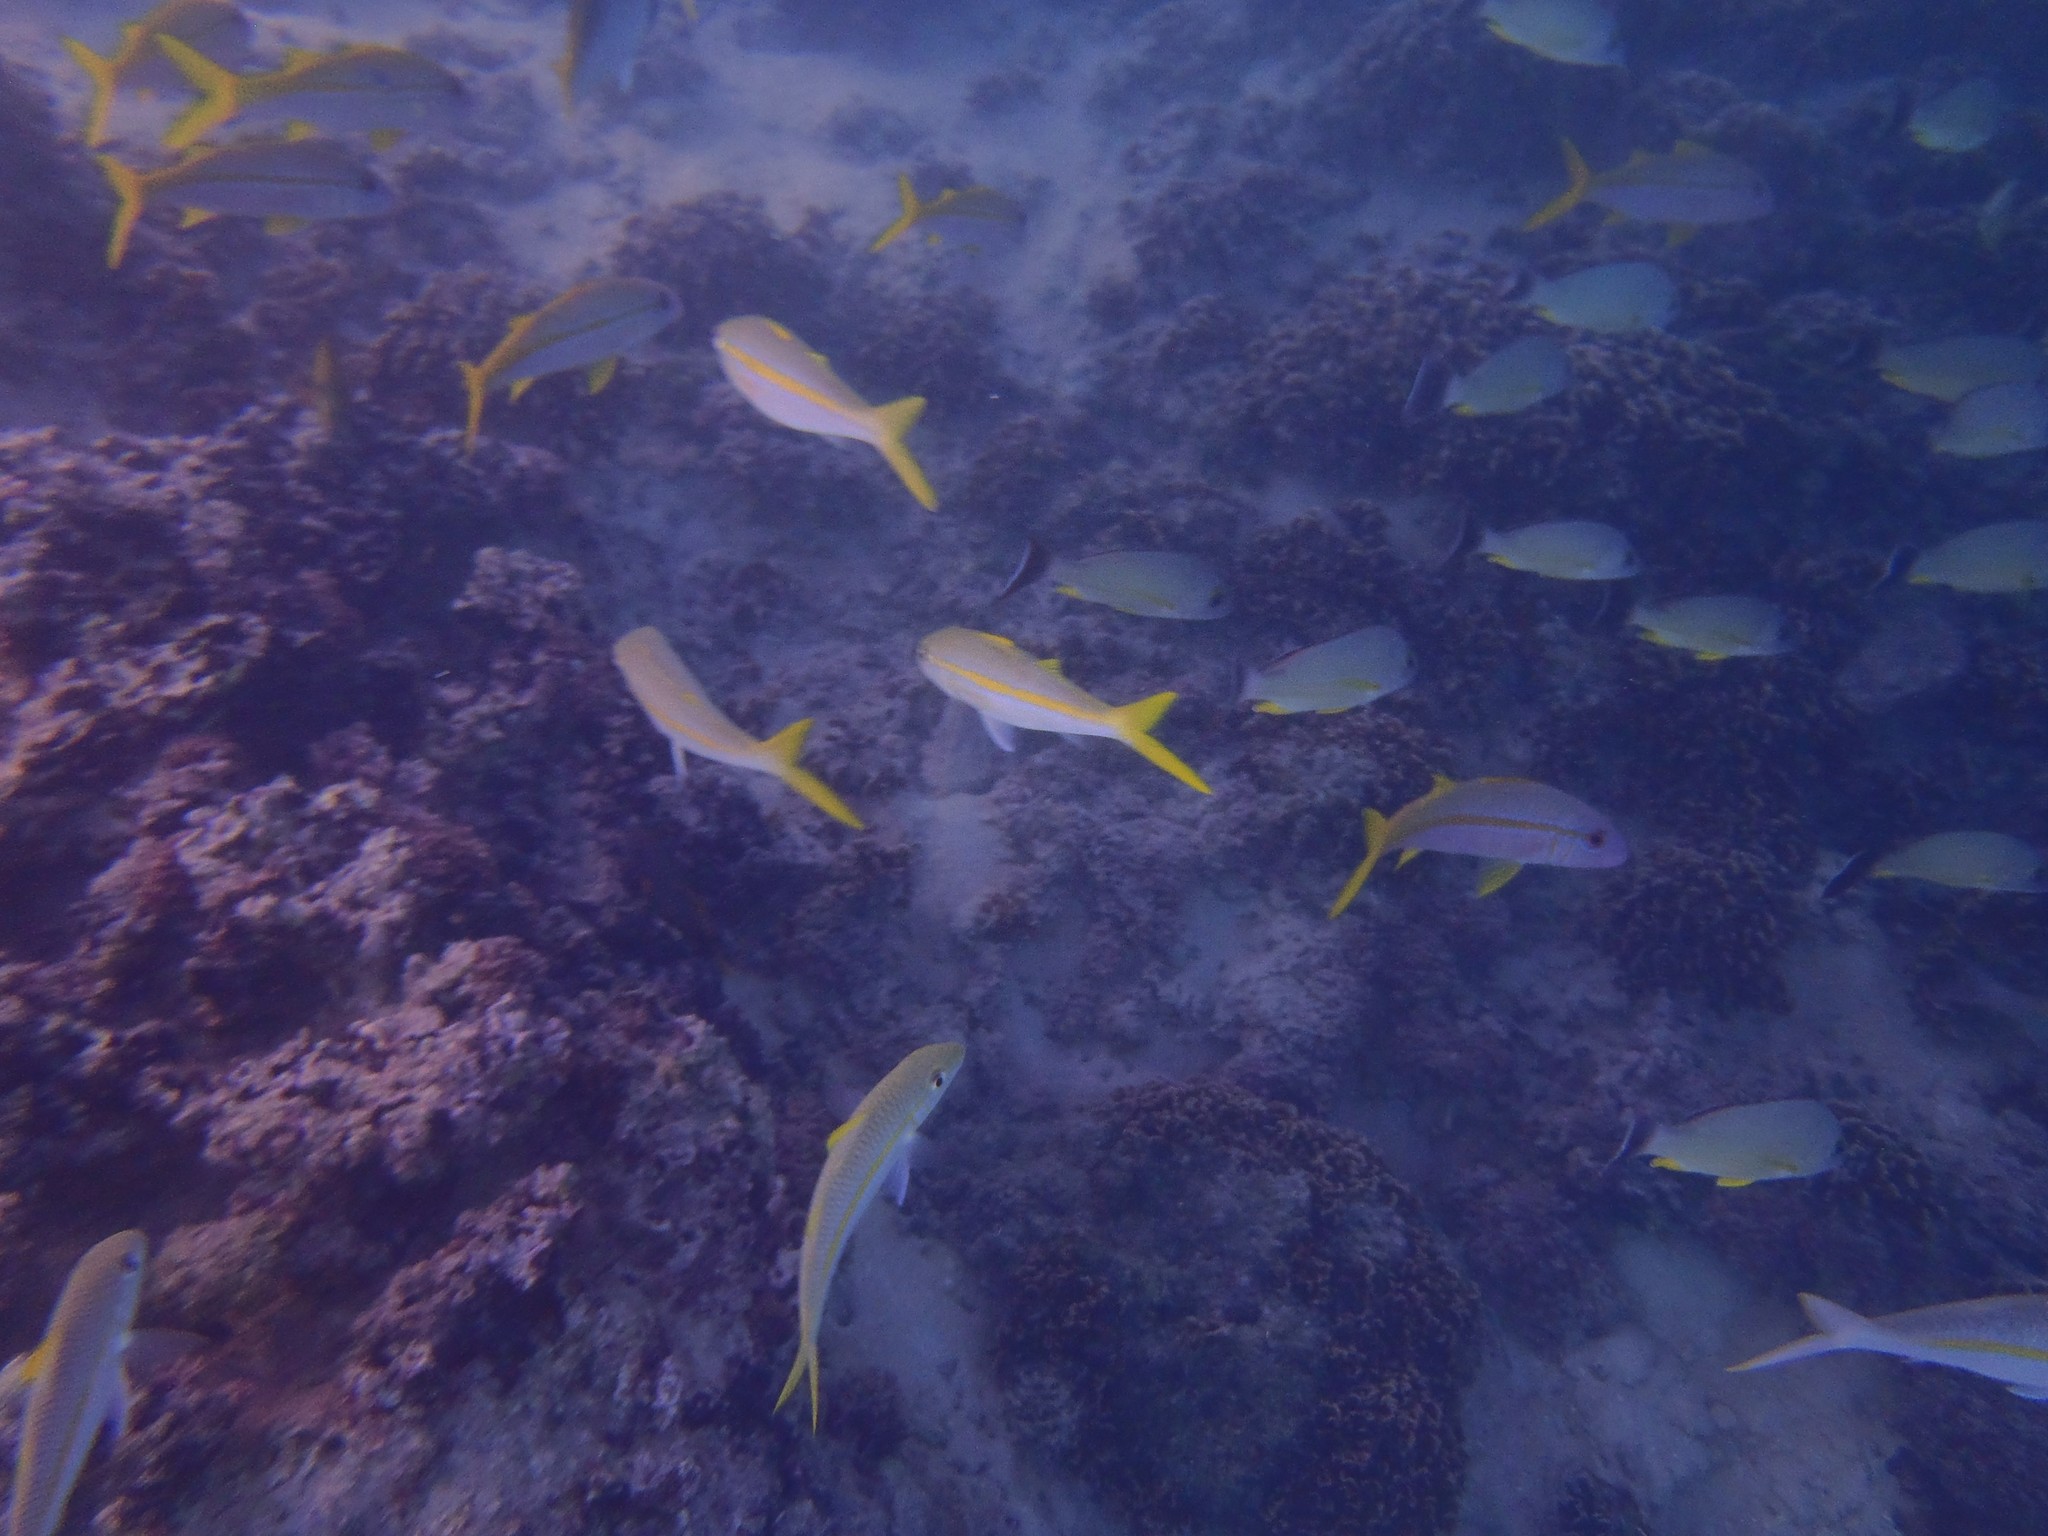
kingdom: Animalia
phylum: Chordata
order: Perciformes
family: Mullidae
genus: Mulloidichthys
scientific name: Mulloidichthys vanicolensis
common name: Yellowfin goatfish
